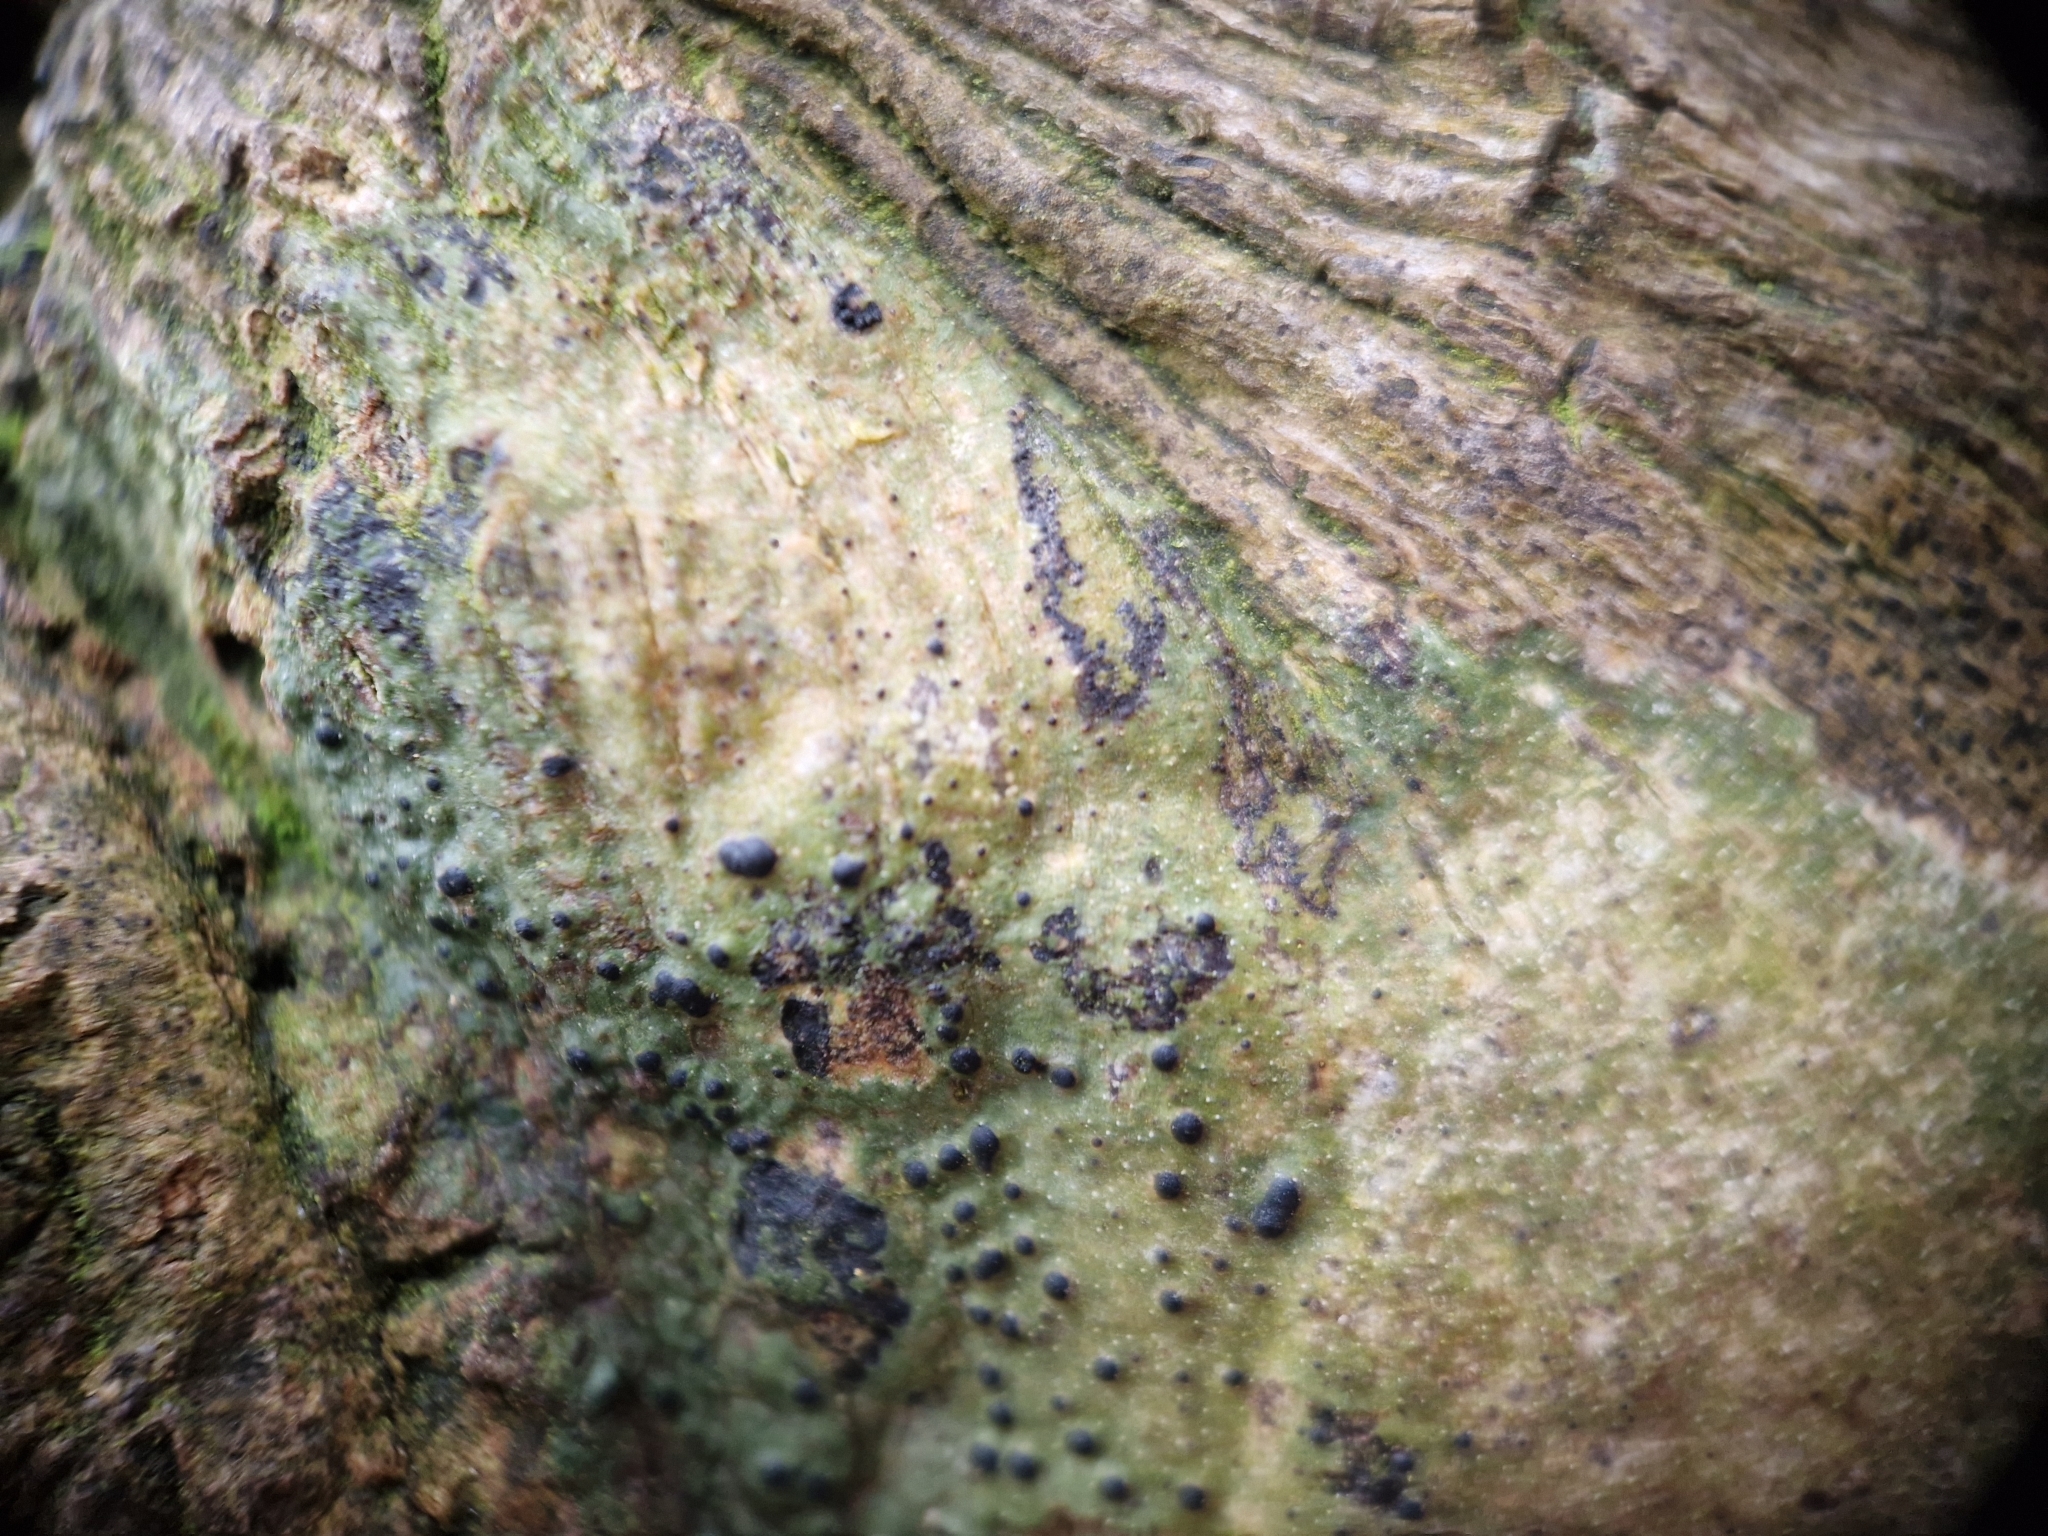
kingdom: Fungi
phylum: Ascomycota
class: Eurotiomycetes
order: Pyrenulales
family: Pyrenulaceae
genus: Pyrenula
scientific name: Pyrenula nitida
